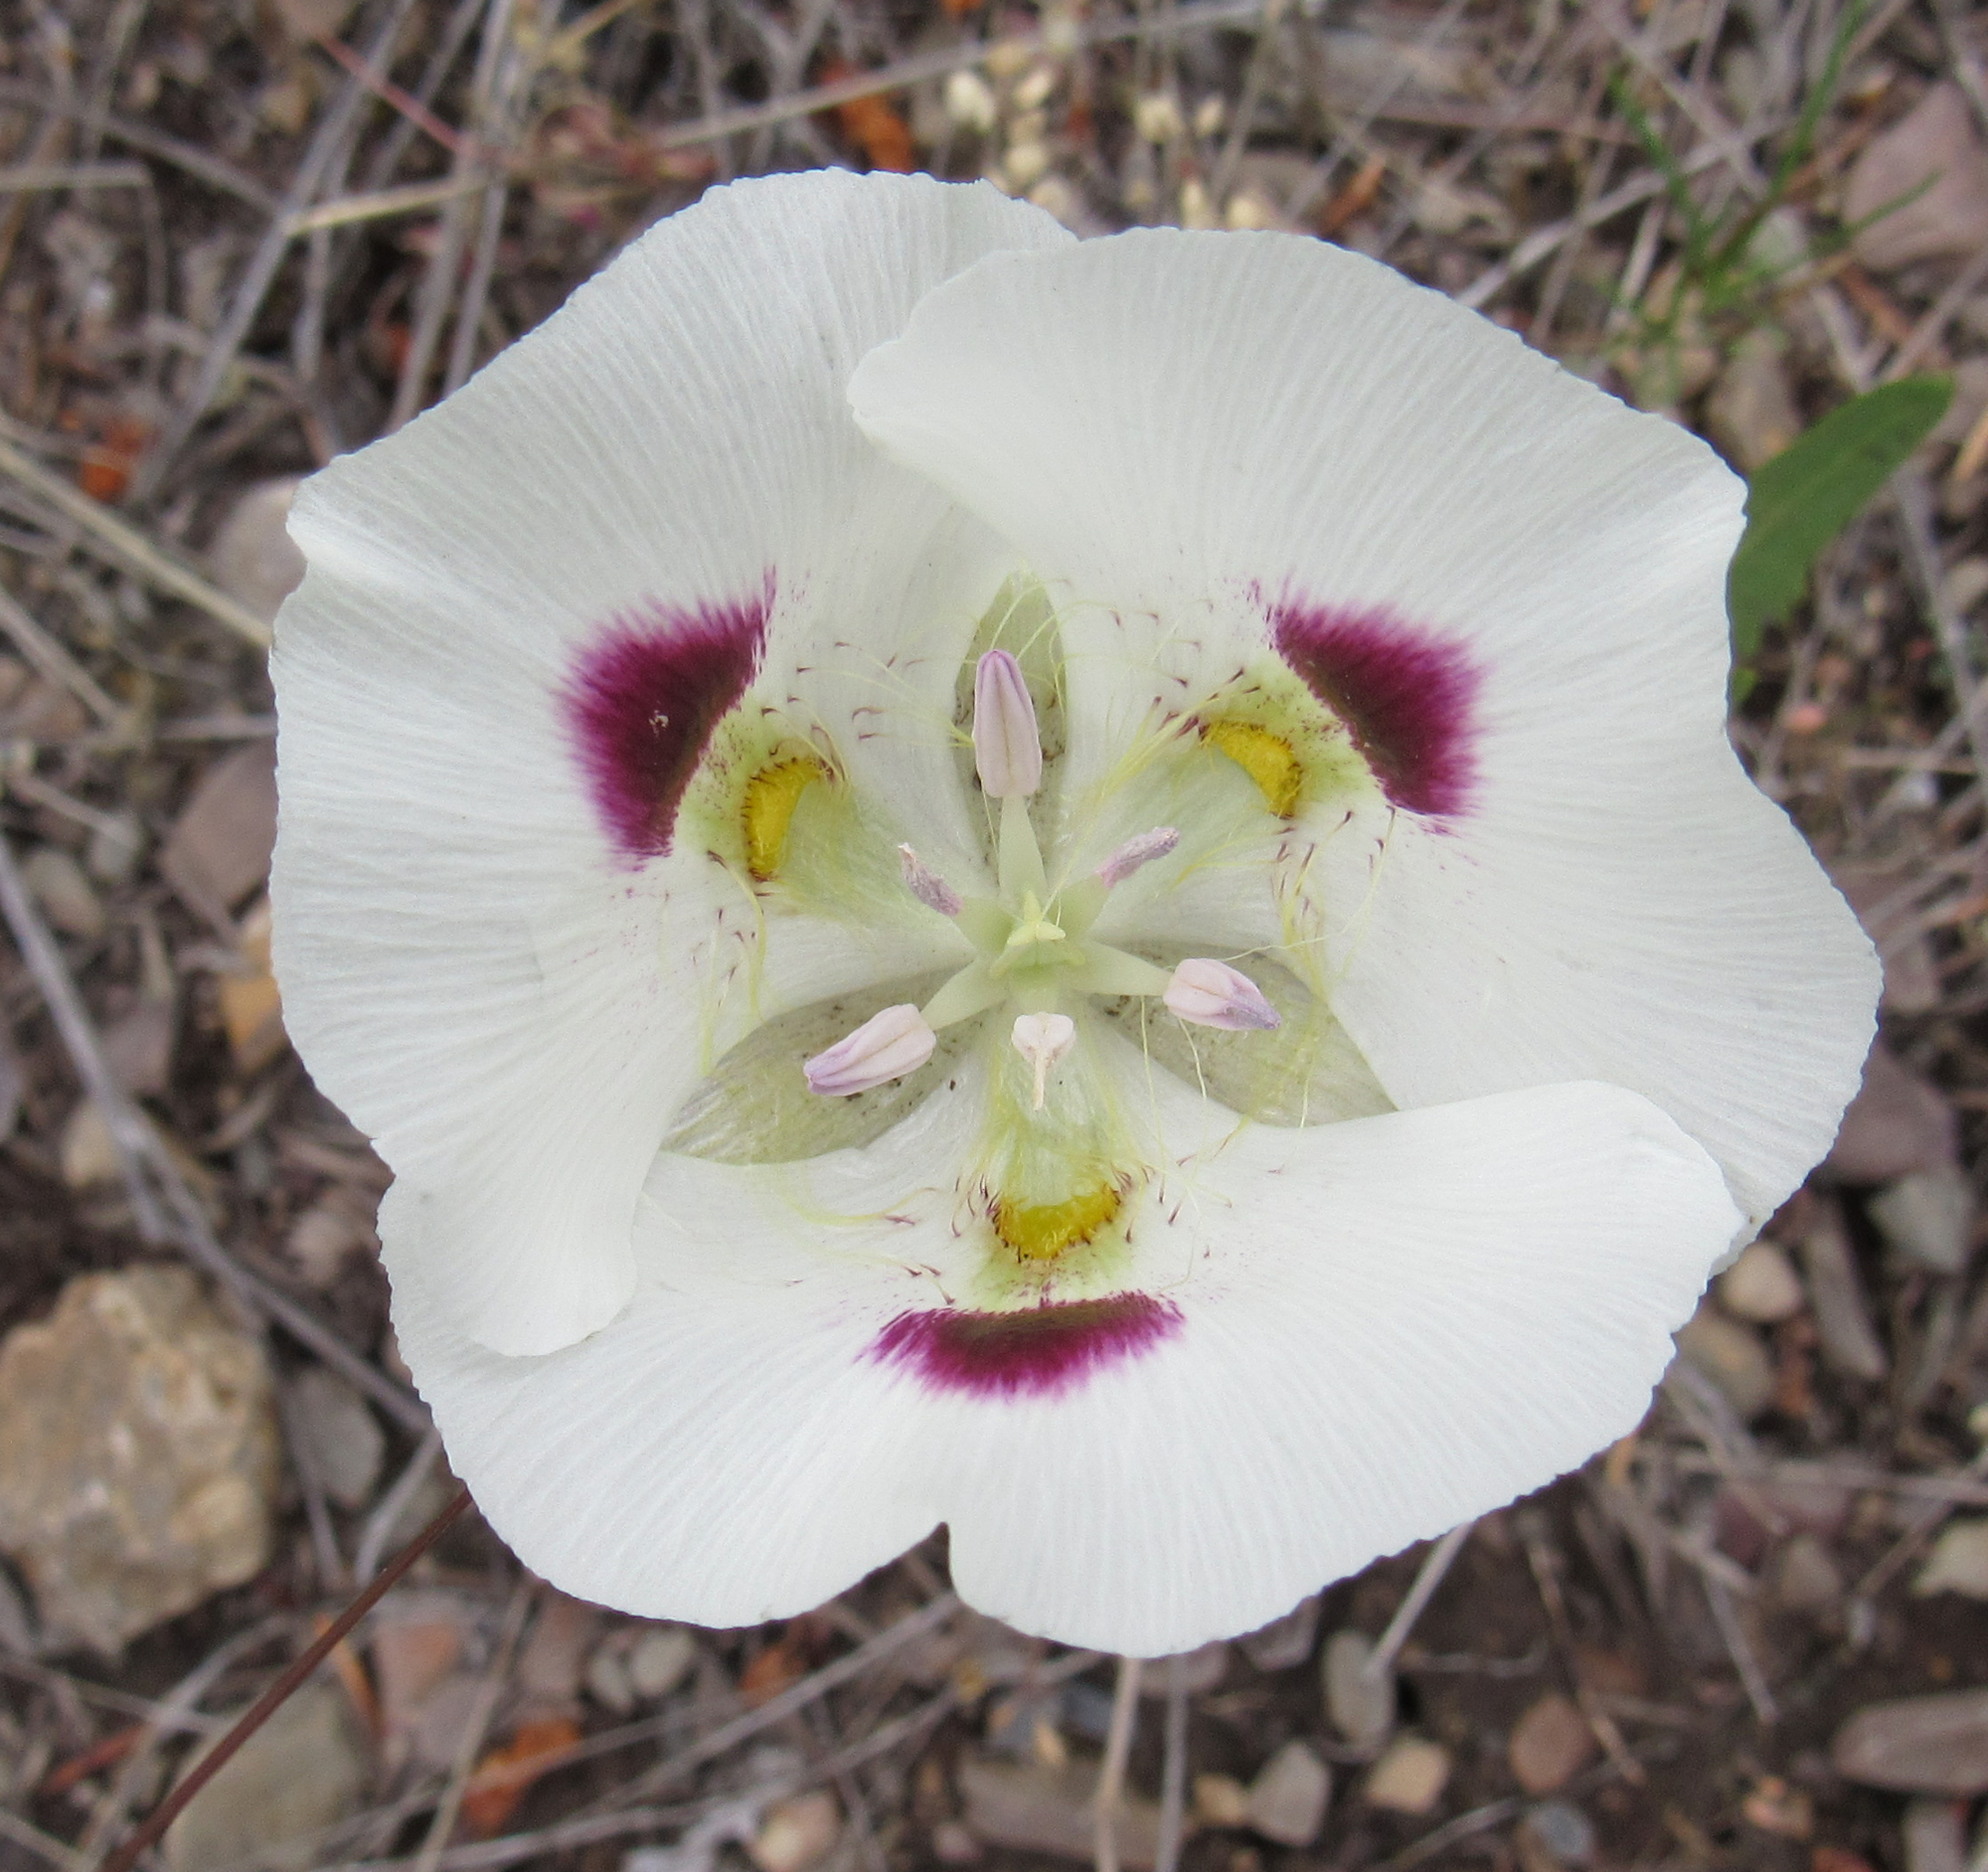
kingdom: Plantae
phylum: Tracheophyta
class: Liliopsida
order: Liliales
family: Liliaceae
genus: Calochortus
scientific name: Calochortus eurycarpus
